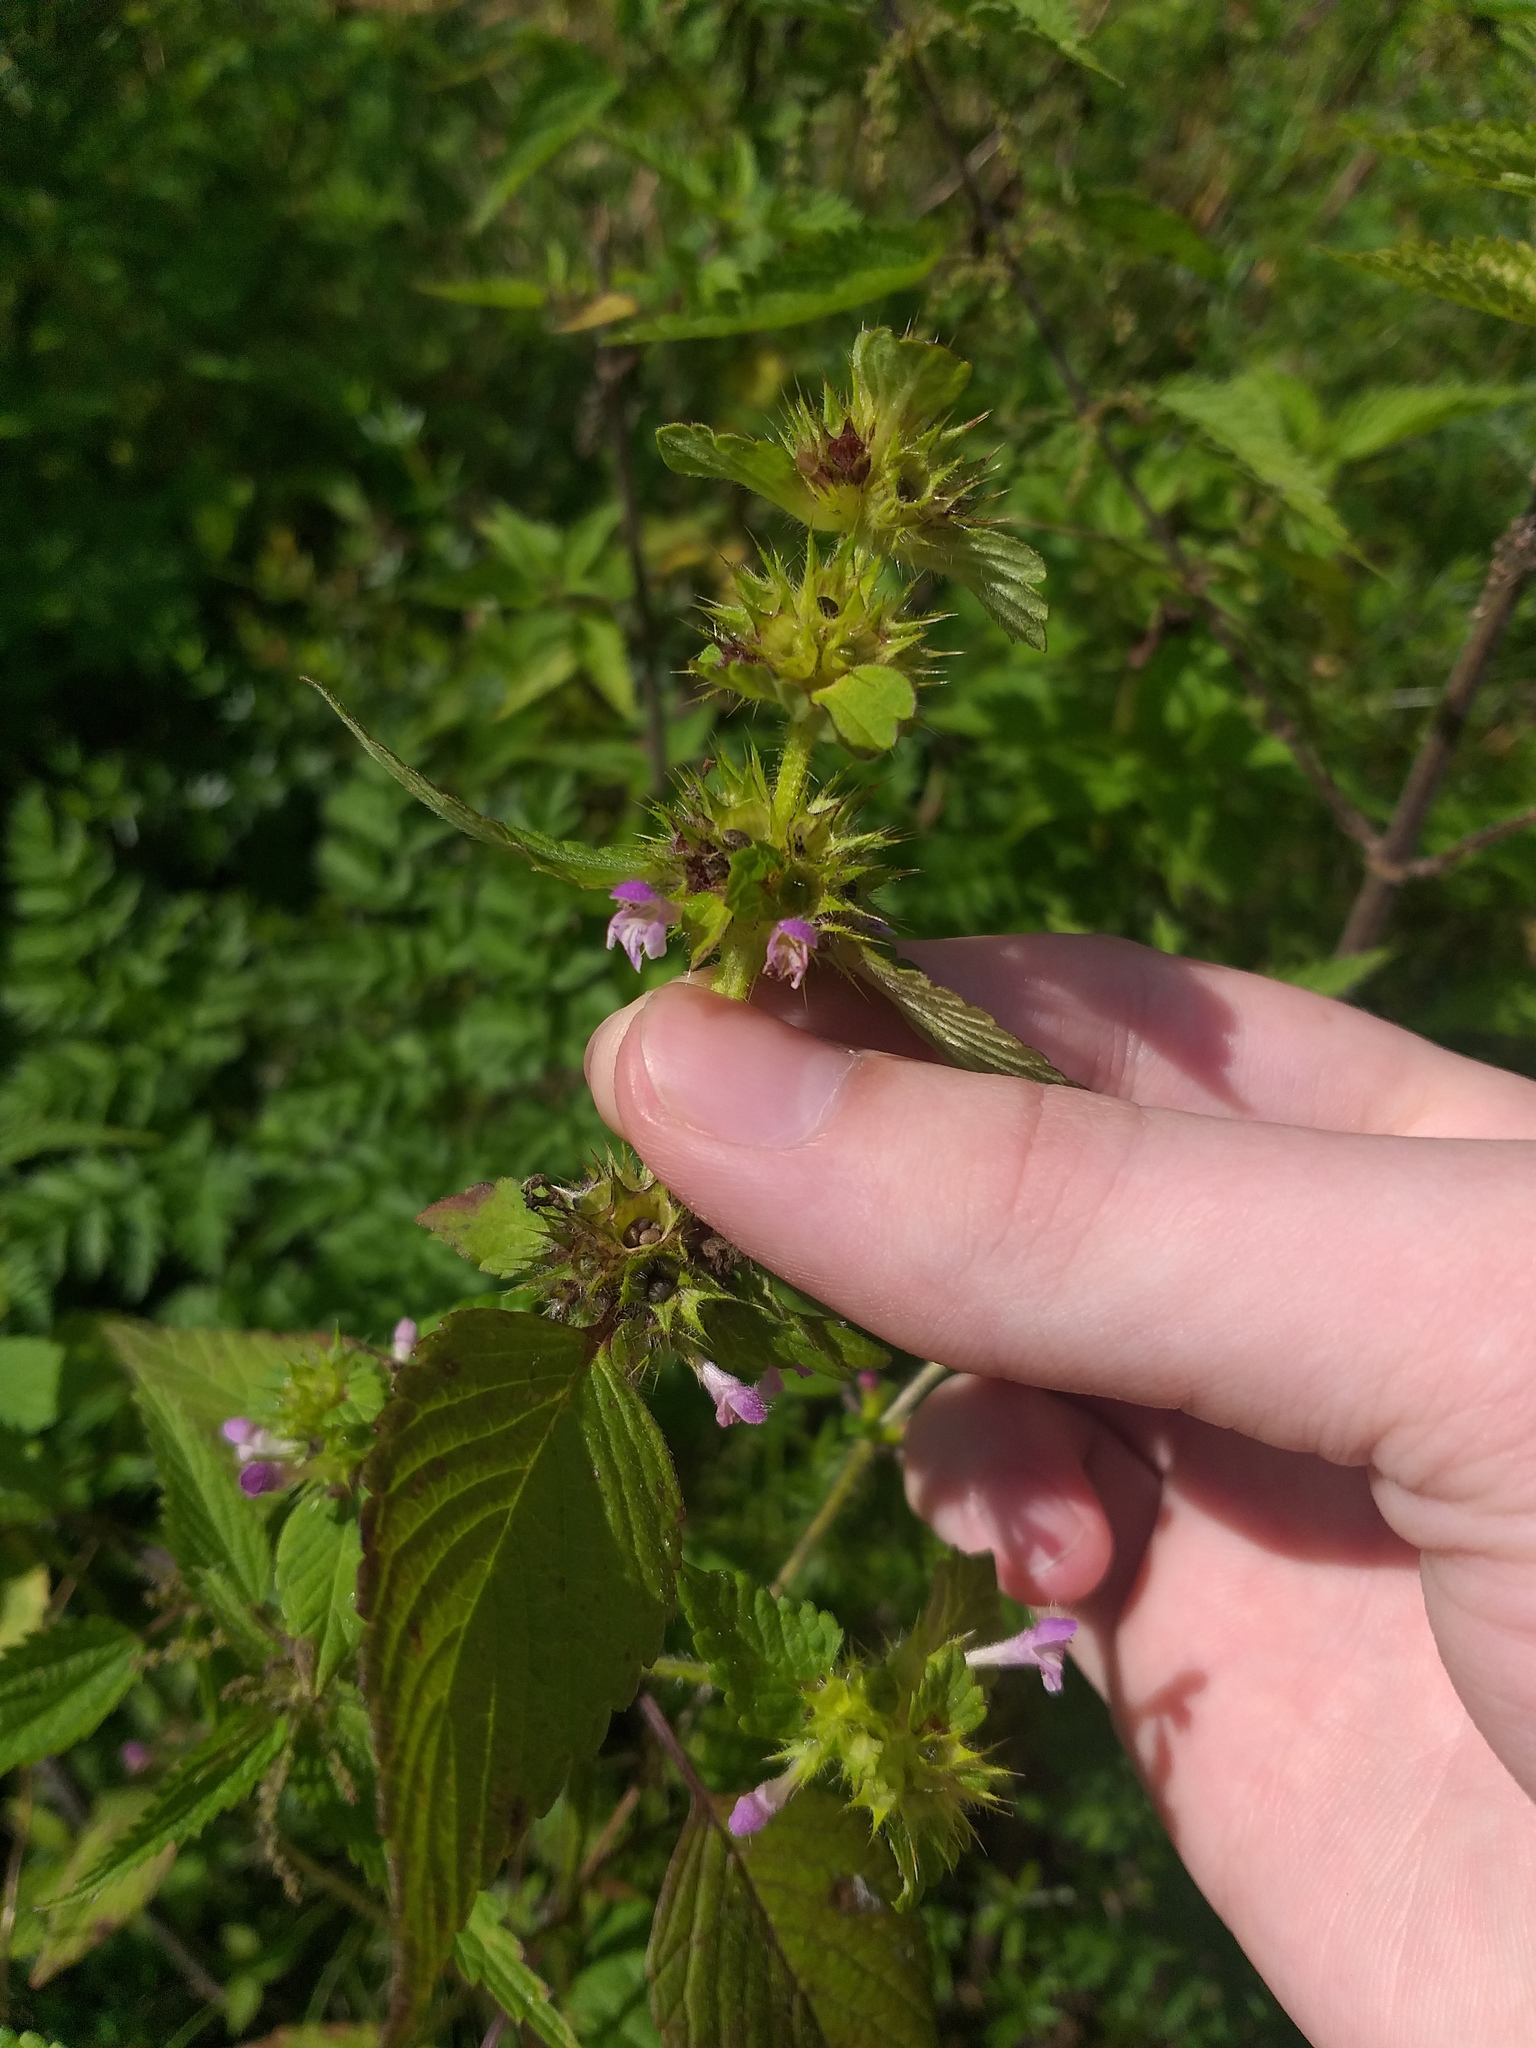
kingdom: Plantae
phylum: Tracheophyta
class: Magnoliopsida
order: Lamiales
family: Lamiaceae
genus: Galeopsis
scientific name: Galeopsis bifida
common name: Bifid hemp-nettle
